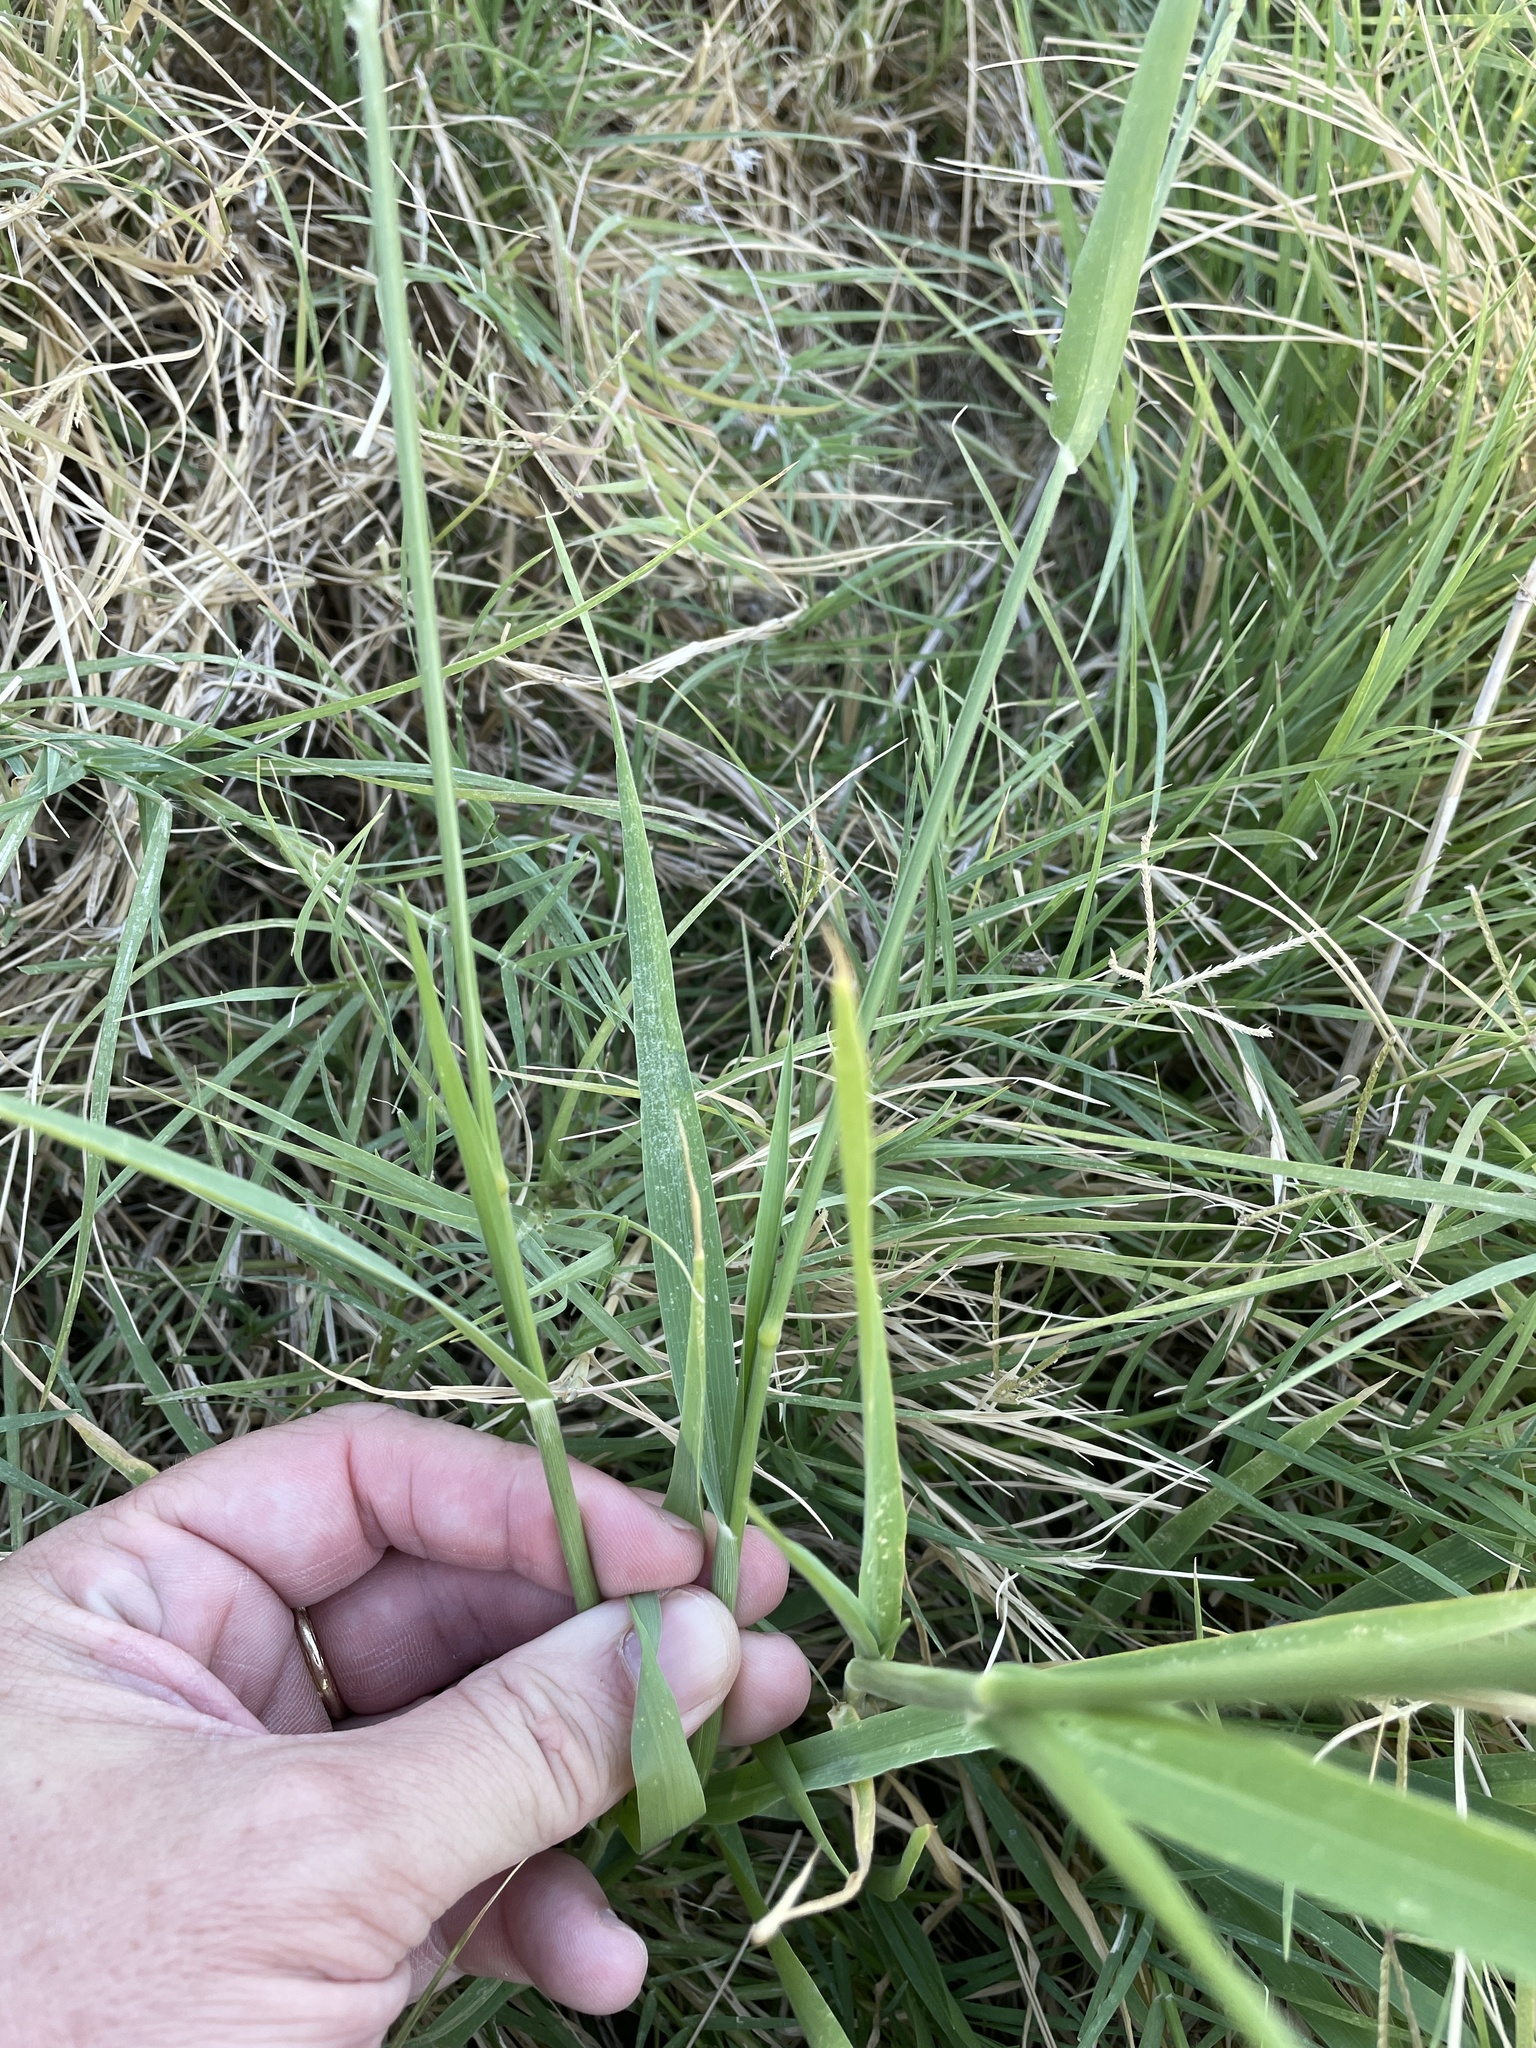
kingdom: Plantae
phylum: Tracheophyta
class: Liliopsida
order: Poales
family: Poaceae
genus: Eriochloa
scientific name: Eriochloa contracta
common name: Prairie cup grass
